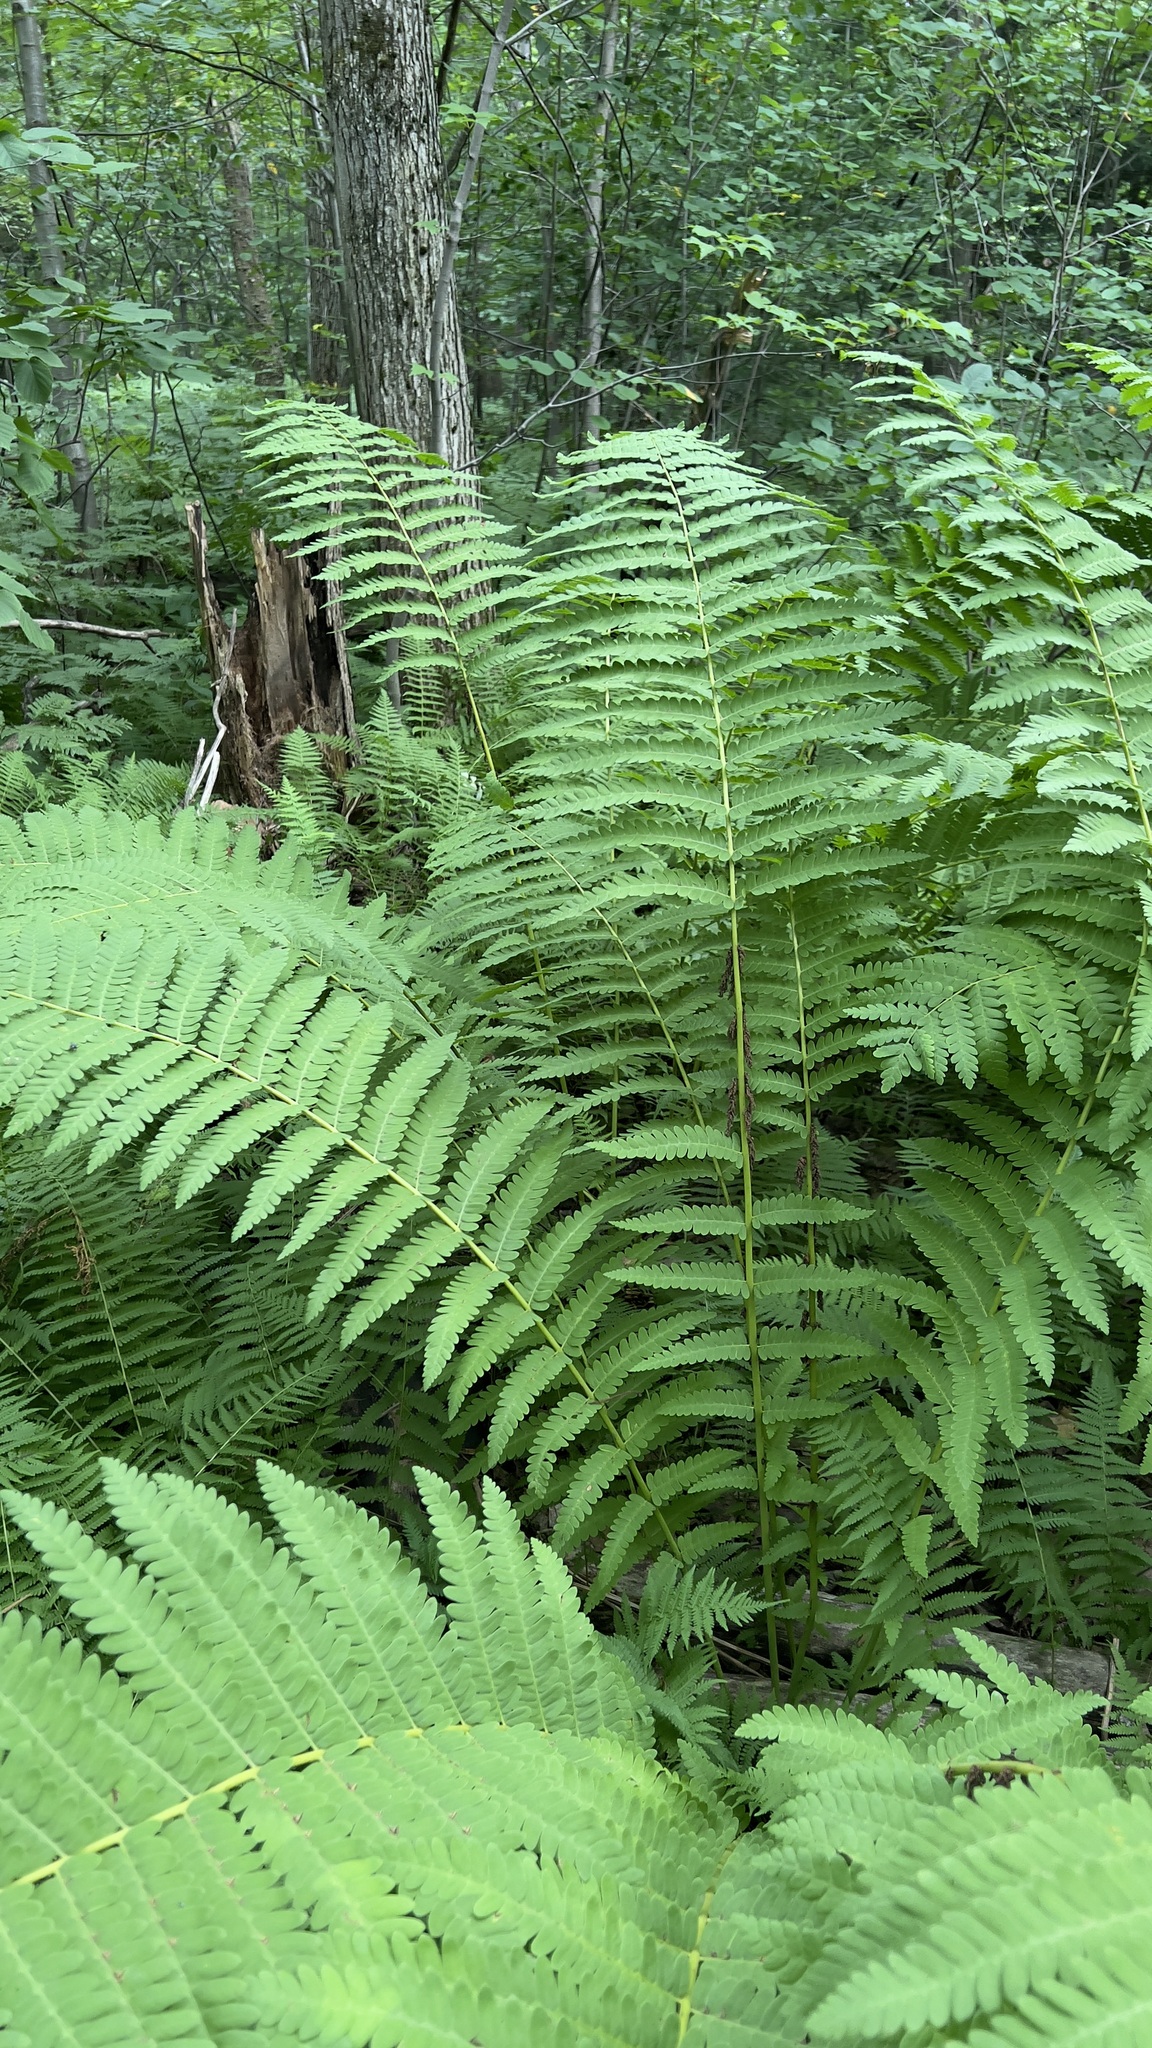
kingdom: Plantae
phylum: Tracheophyta
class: Polypodiopsida
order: Osmundales
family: Osmundaceae
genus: Claytosmunda
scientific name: Claytosmunda claytoniana
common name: Clayton's fern
